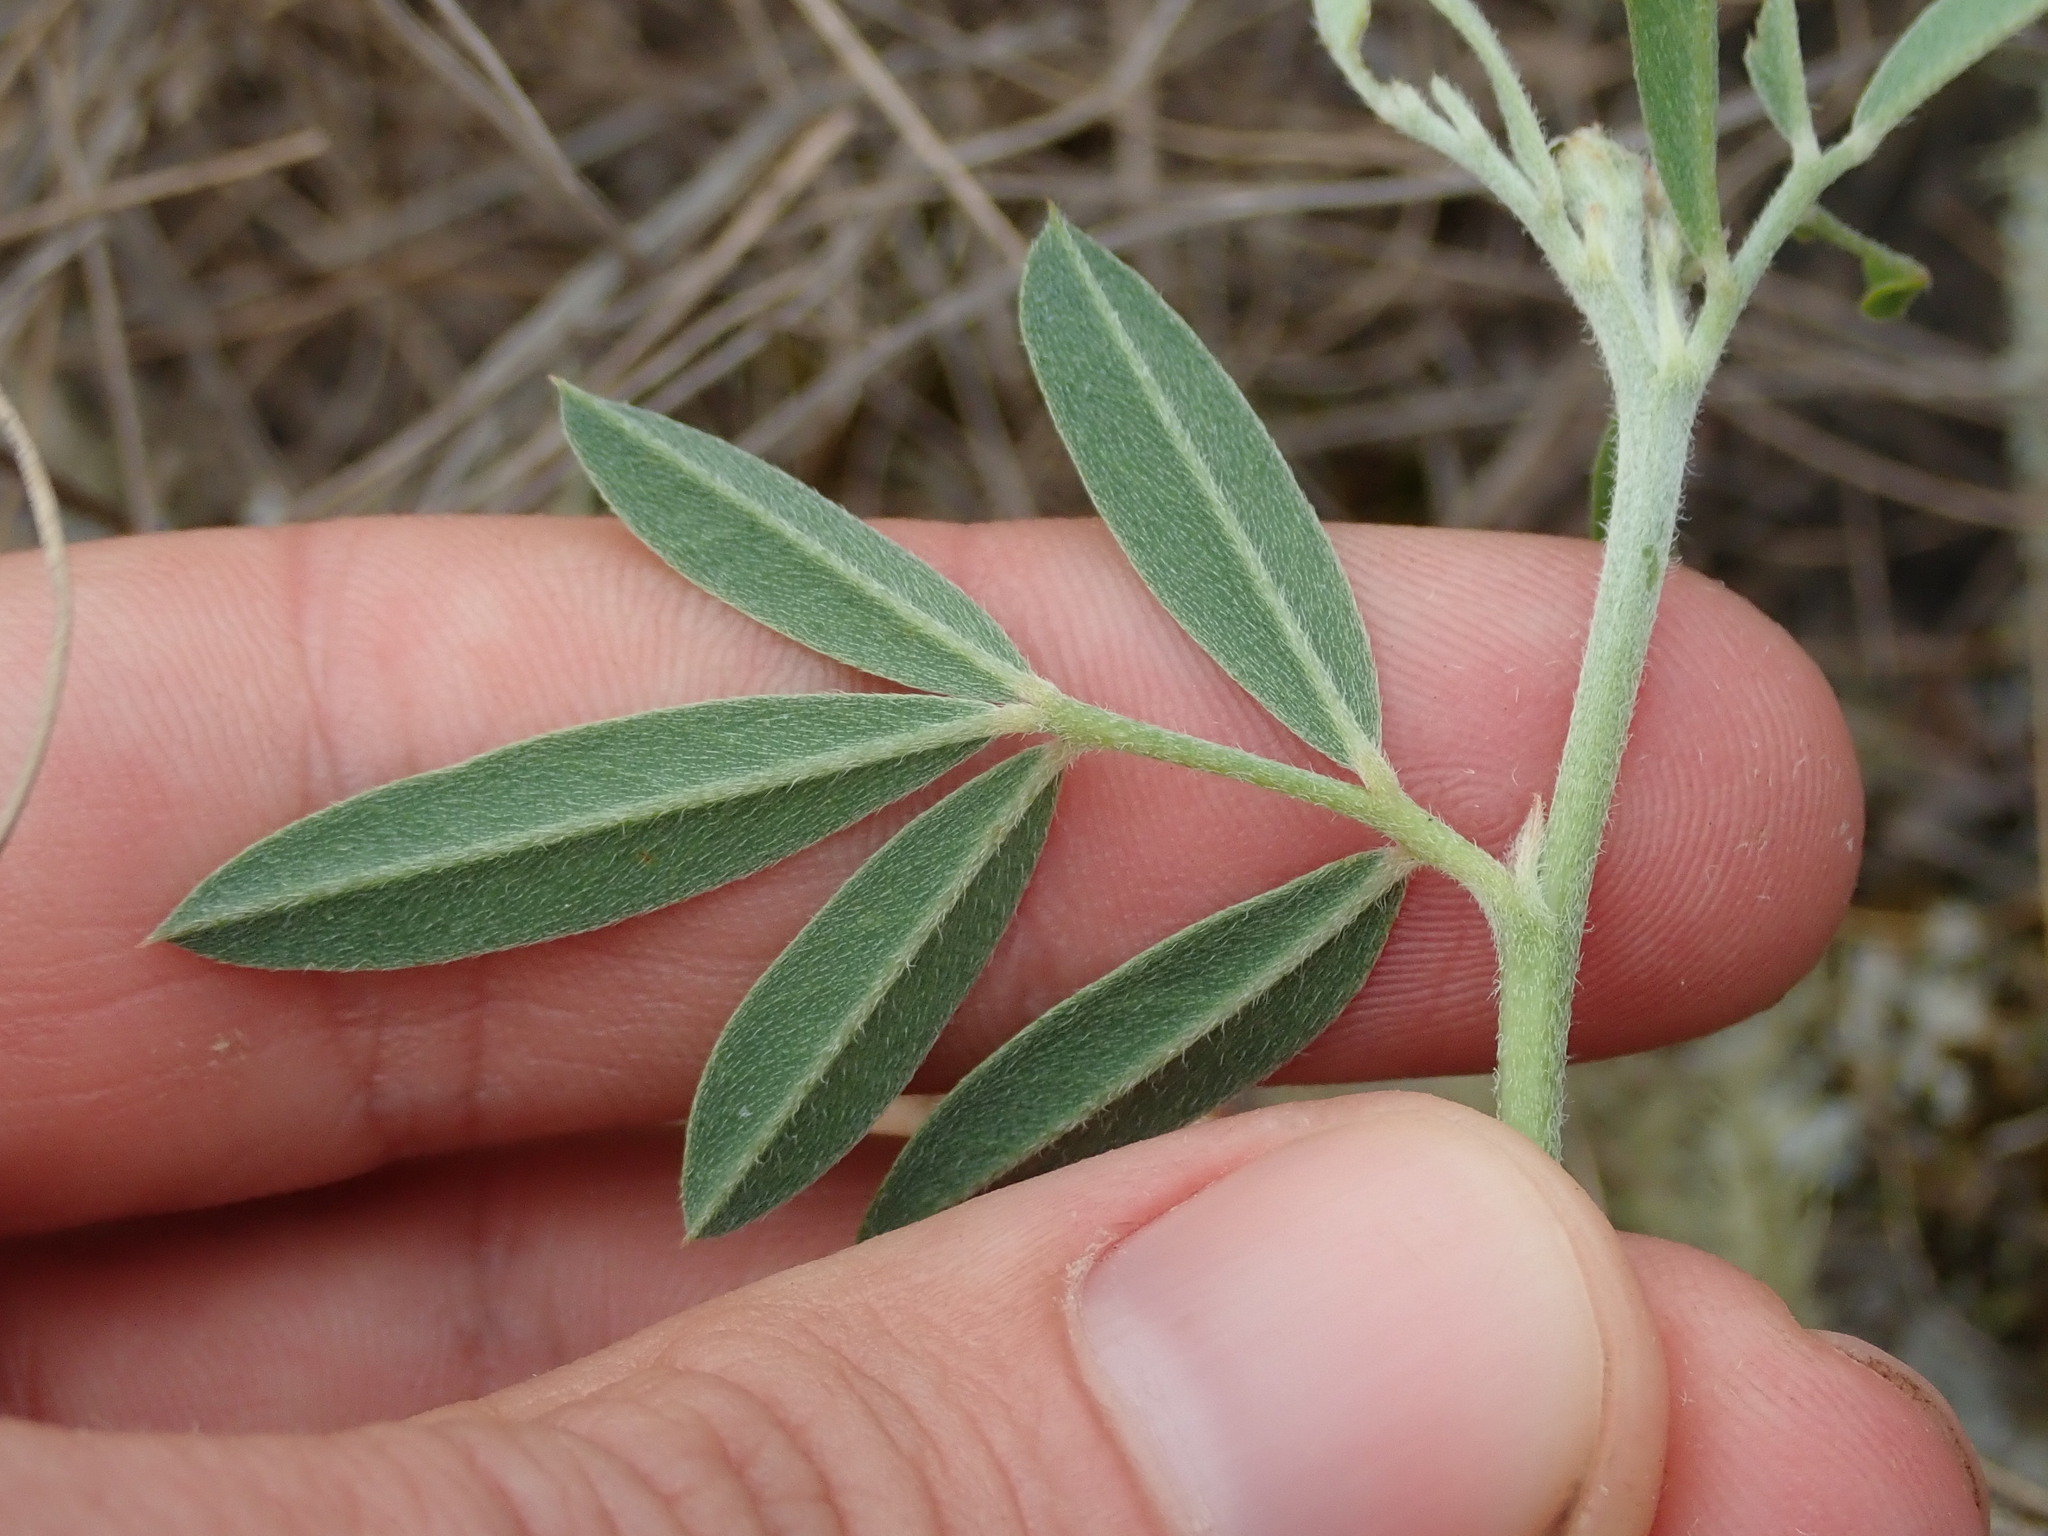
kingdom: Plantae
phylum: Tracheophyta
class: Magnoliopsida
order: Fabales
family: Fabaceae
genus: Indigofera
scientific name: Indigofera campestris
